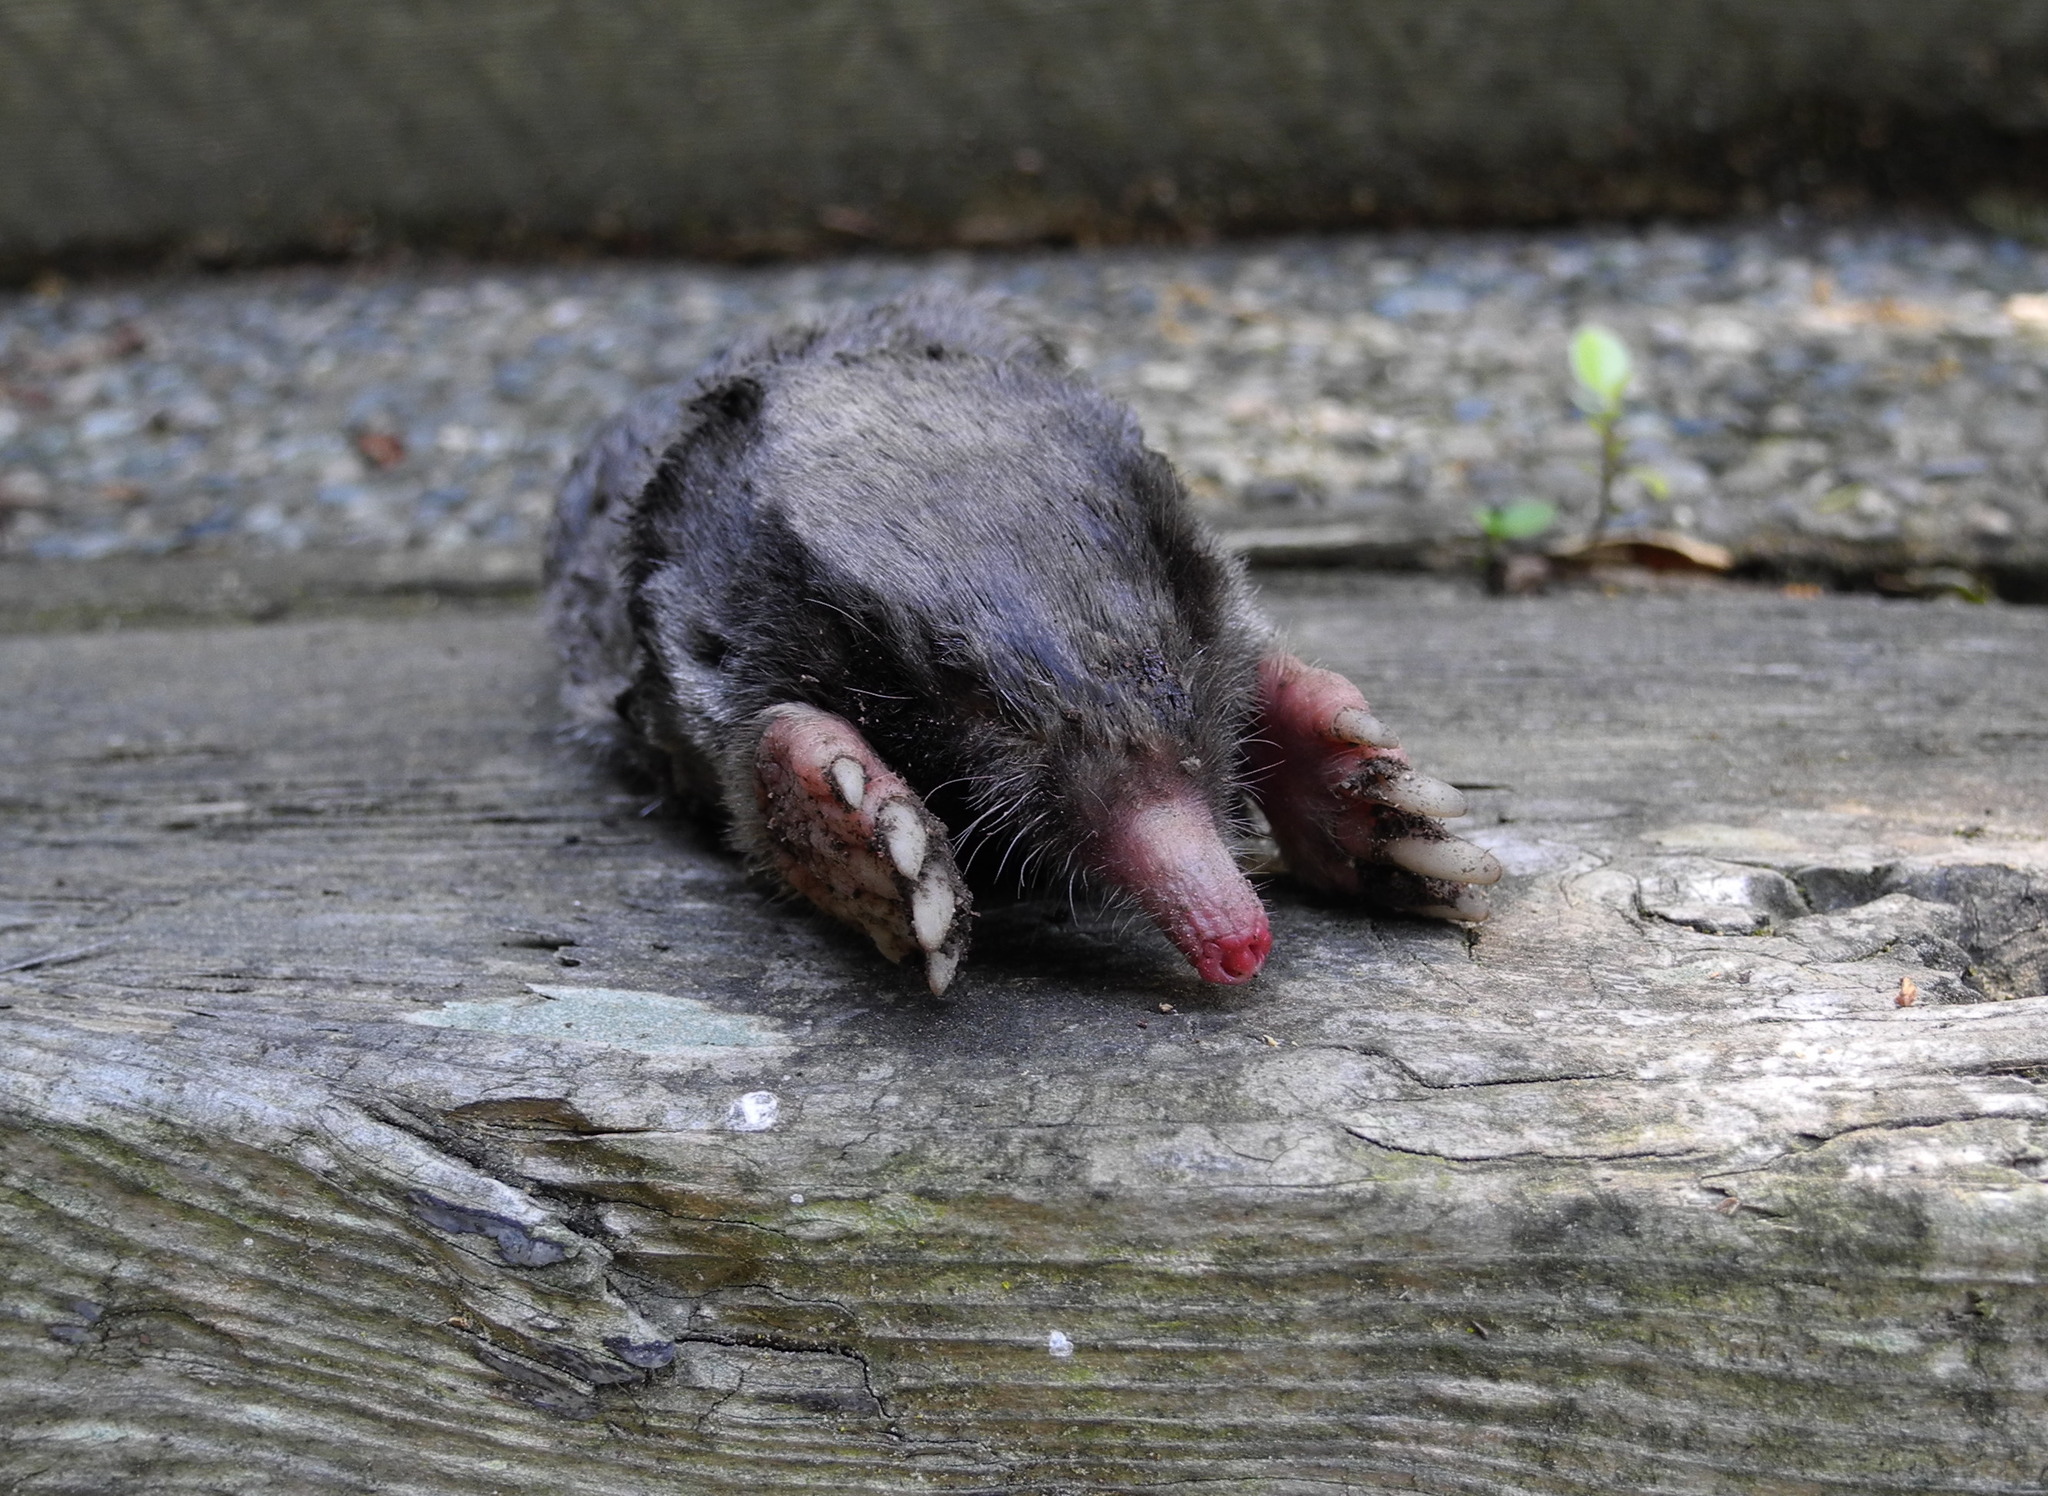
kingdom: Animalia
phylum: Chordata
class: Mammalia
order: Soricomorpha
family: Talpidae
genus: Scapanus
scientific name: Scapanus latimanus
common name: Broad-footed mole
